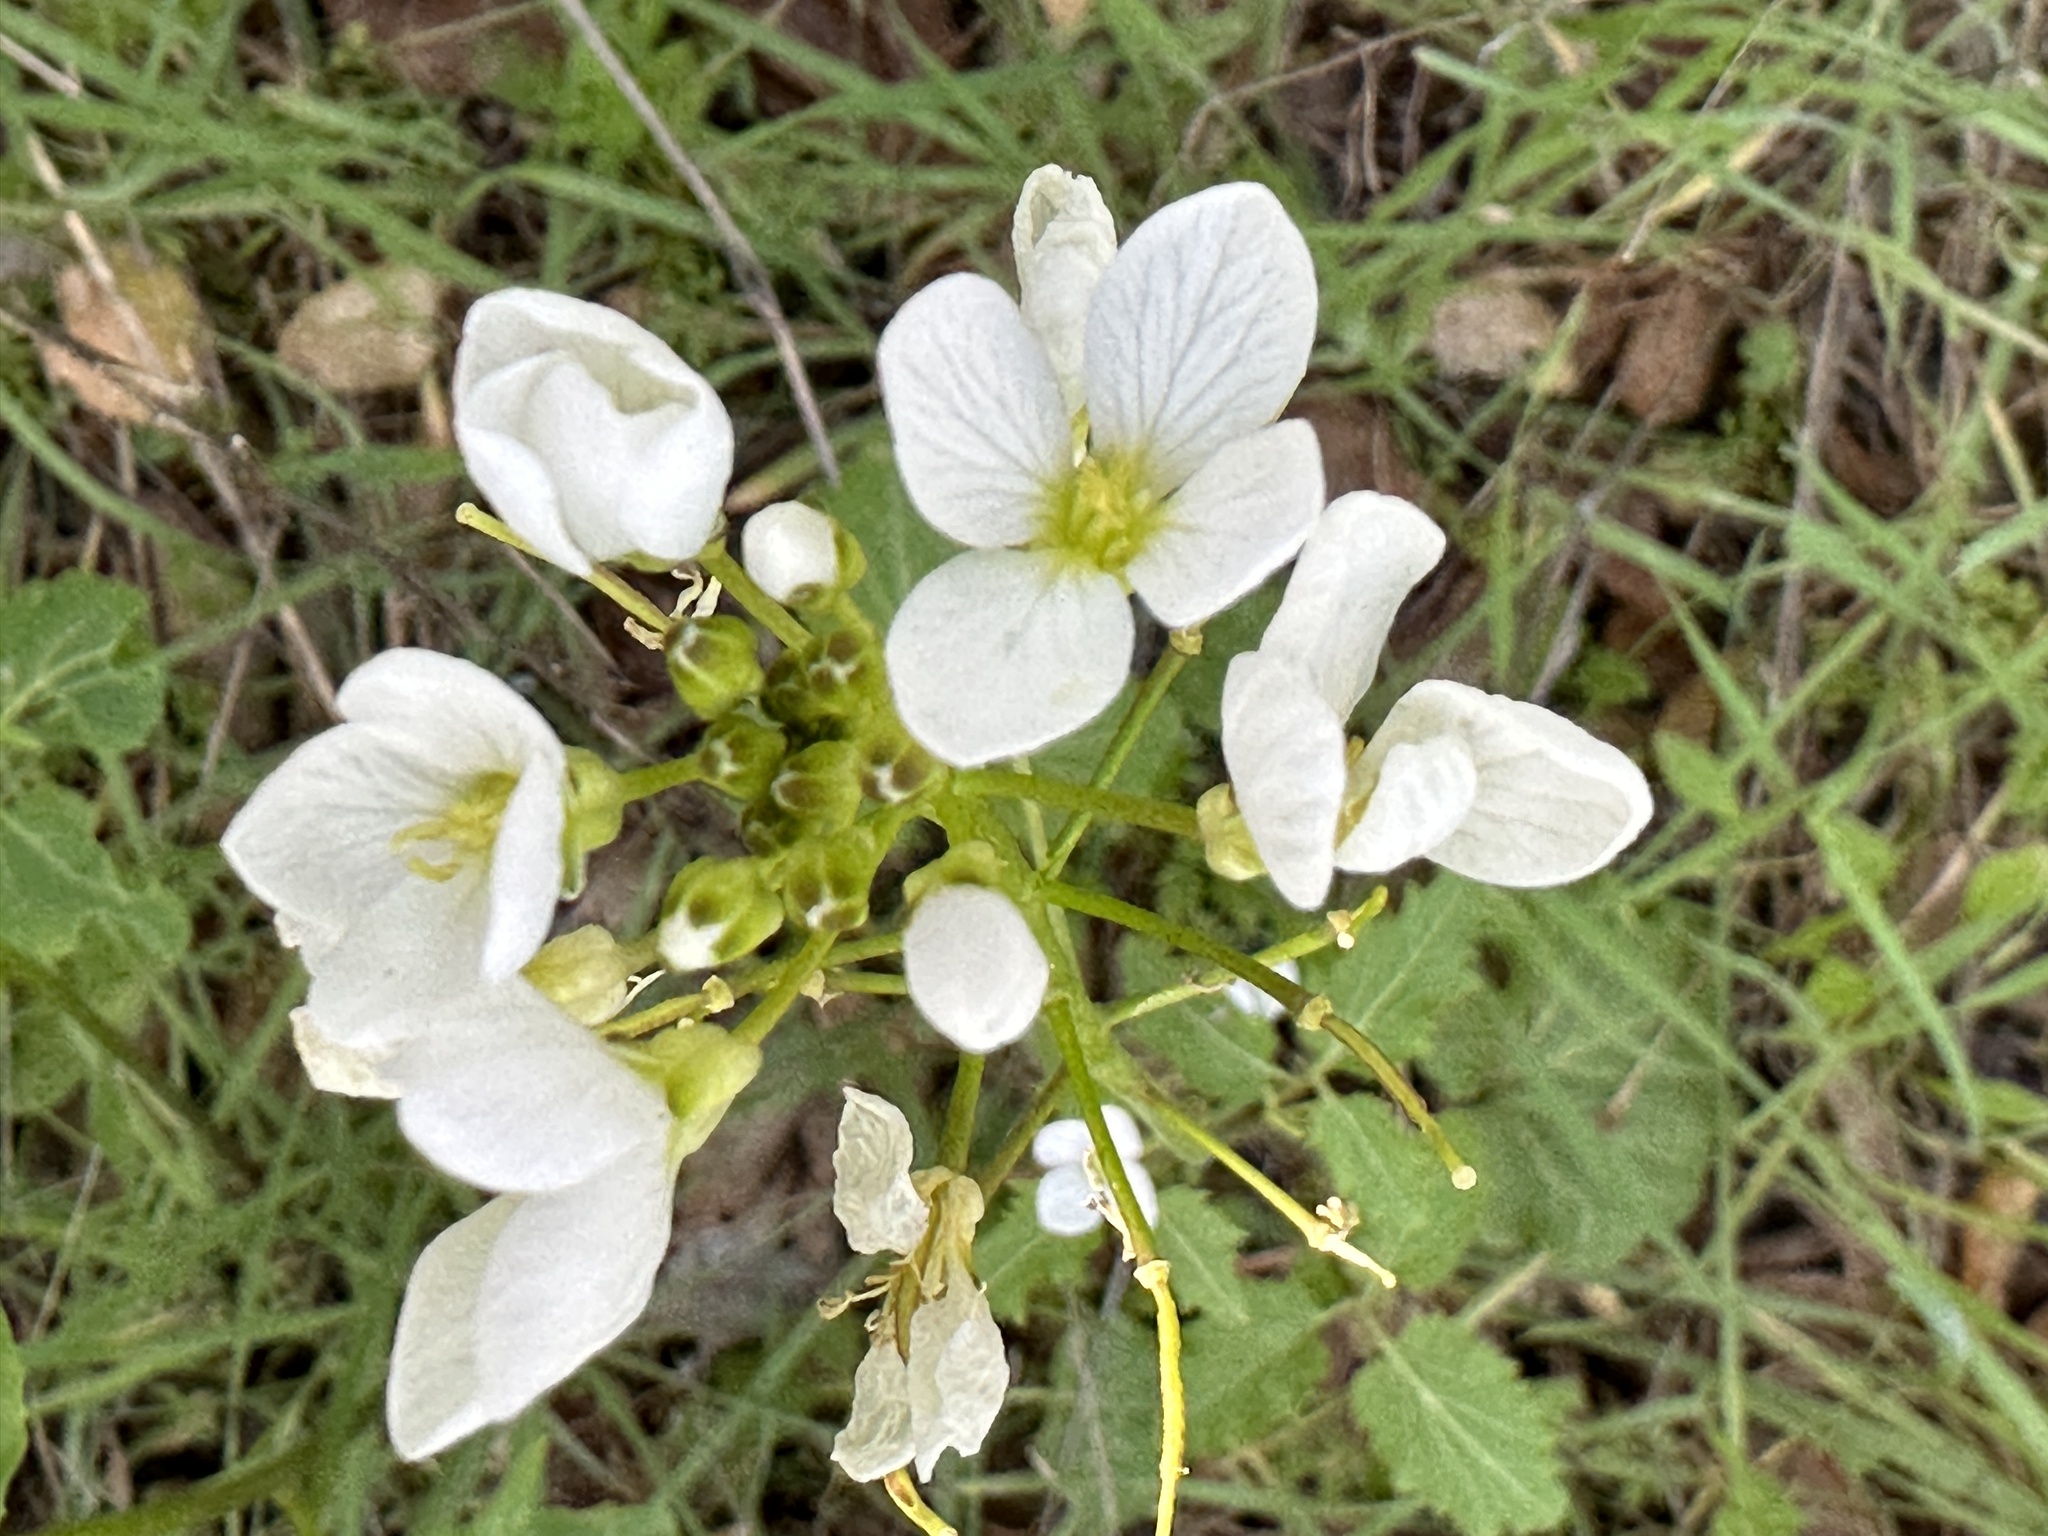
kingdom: Plantae
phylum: Tracheophyta
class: Magnoliopsida
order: Brassicales
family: Brassicaceae
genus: Cardamine
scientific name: Cardamine californica
